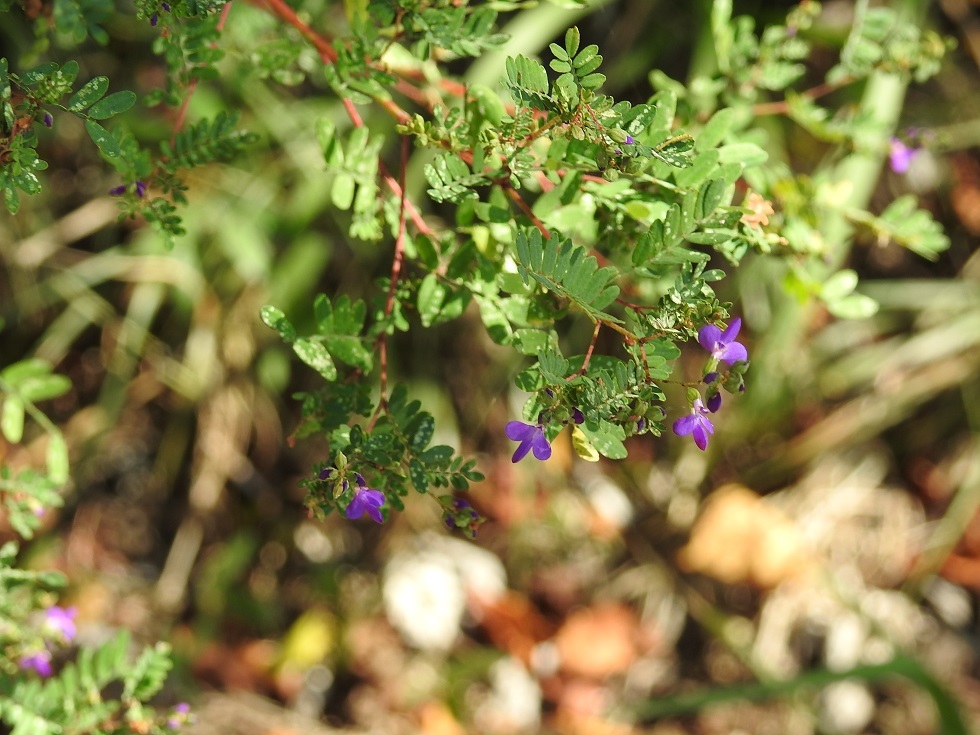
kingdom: Plantae
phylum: Tracheophyta
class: Magnoliopsida
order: Fabales
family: Fabaceae
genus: Marina
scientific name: Marina scopa
